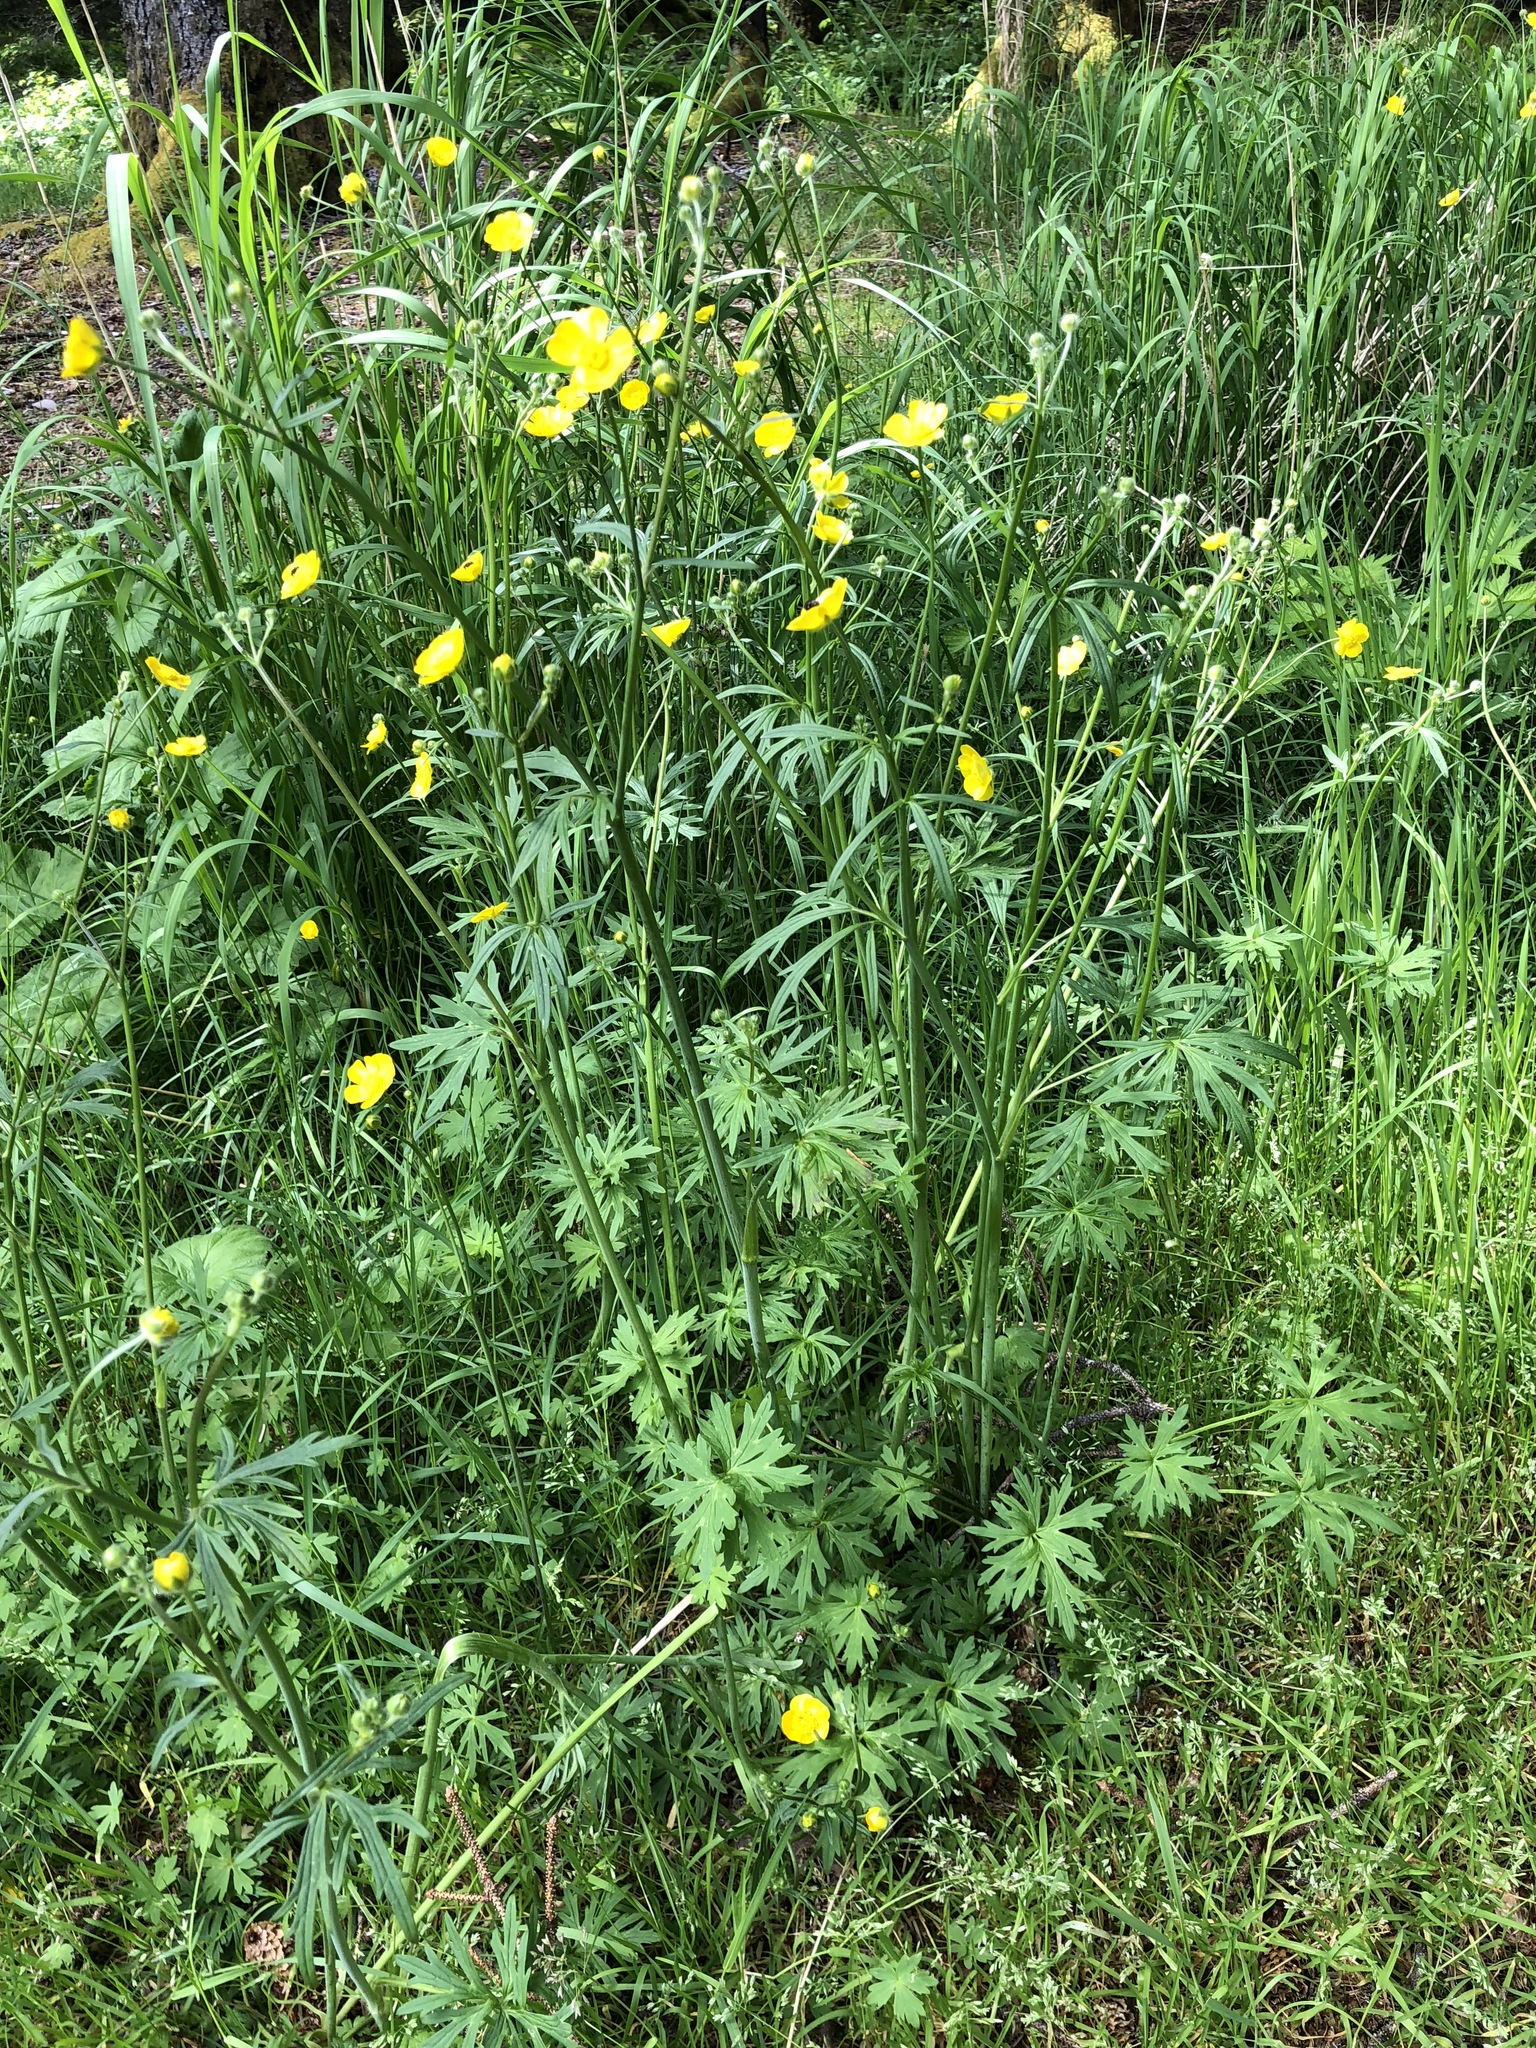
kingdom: Plantae
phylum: Tracheophyta
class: Magnoliopsida
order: Ranunculales
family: Ranunculaceae
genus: Ranunculus
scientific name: Ranunculus acris
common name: Meadow buttercup
